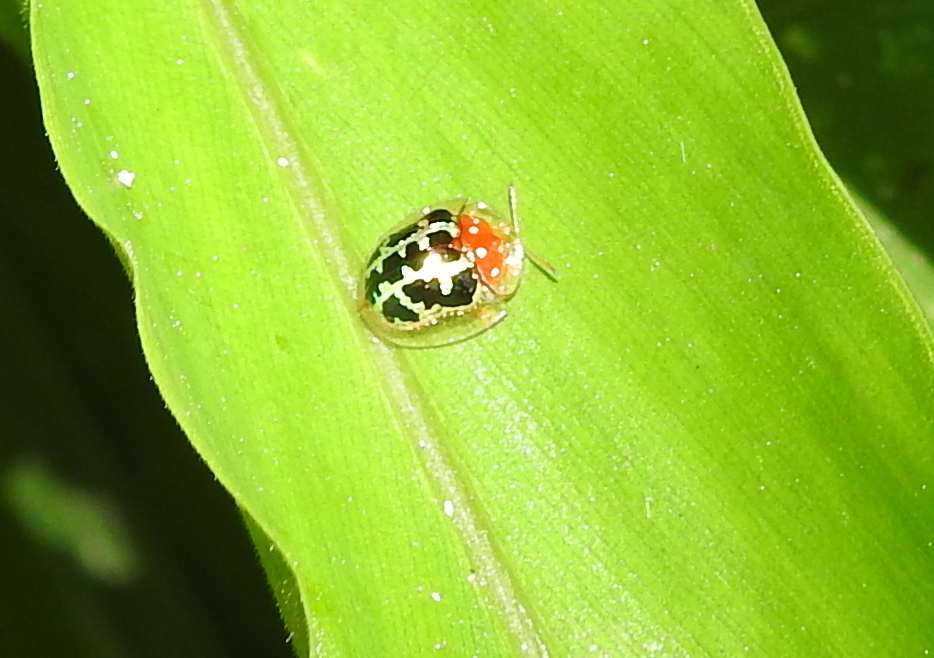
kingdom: Animalia
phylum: Arthropoda
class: Insecta
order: Coleoptera
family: Chrysomelidae
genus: Chiridopsis
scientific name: Chiridopsis scalaris
